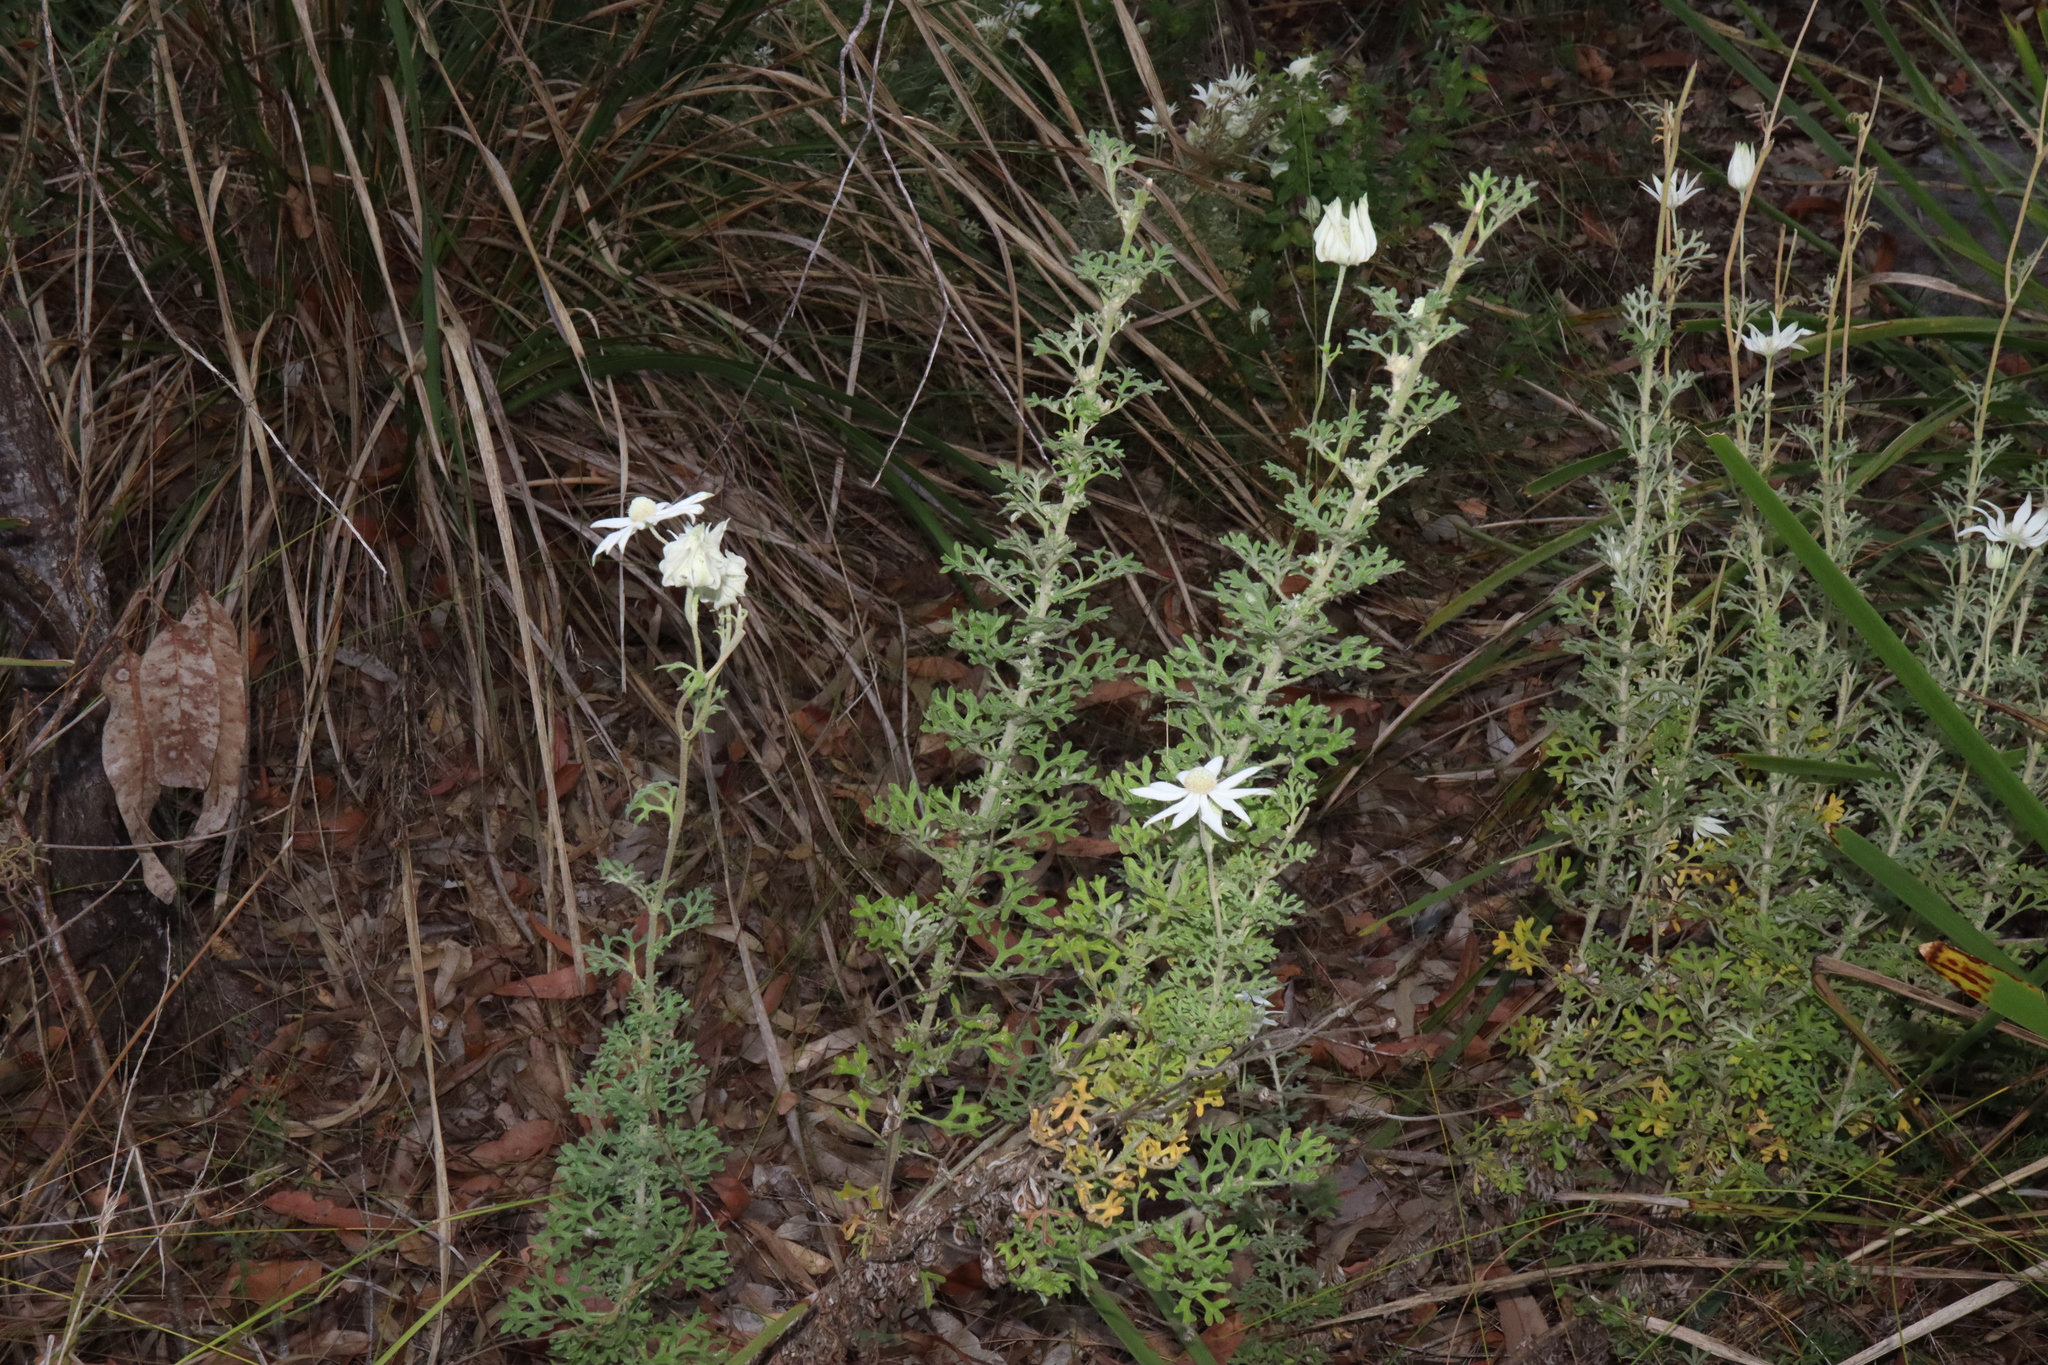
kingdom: Plantae
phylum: Tracheophyta
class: Magnoliopsida
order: Apiales
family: Apiaceae
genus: Actinotus
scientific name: Actinotus helianthi
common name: Flannel-flower
